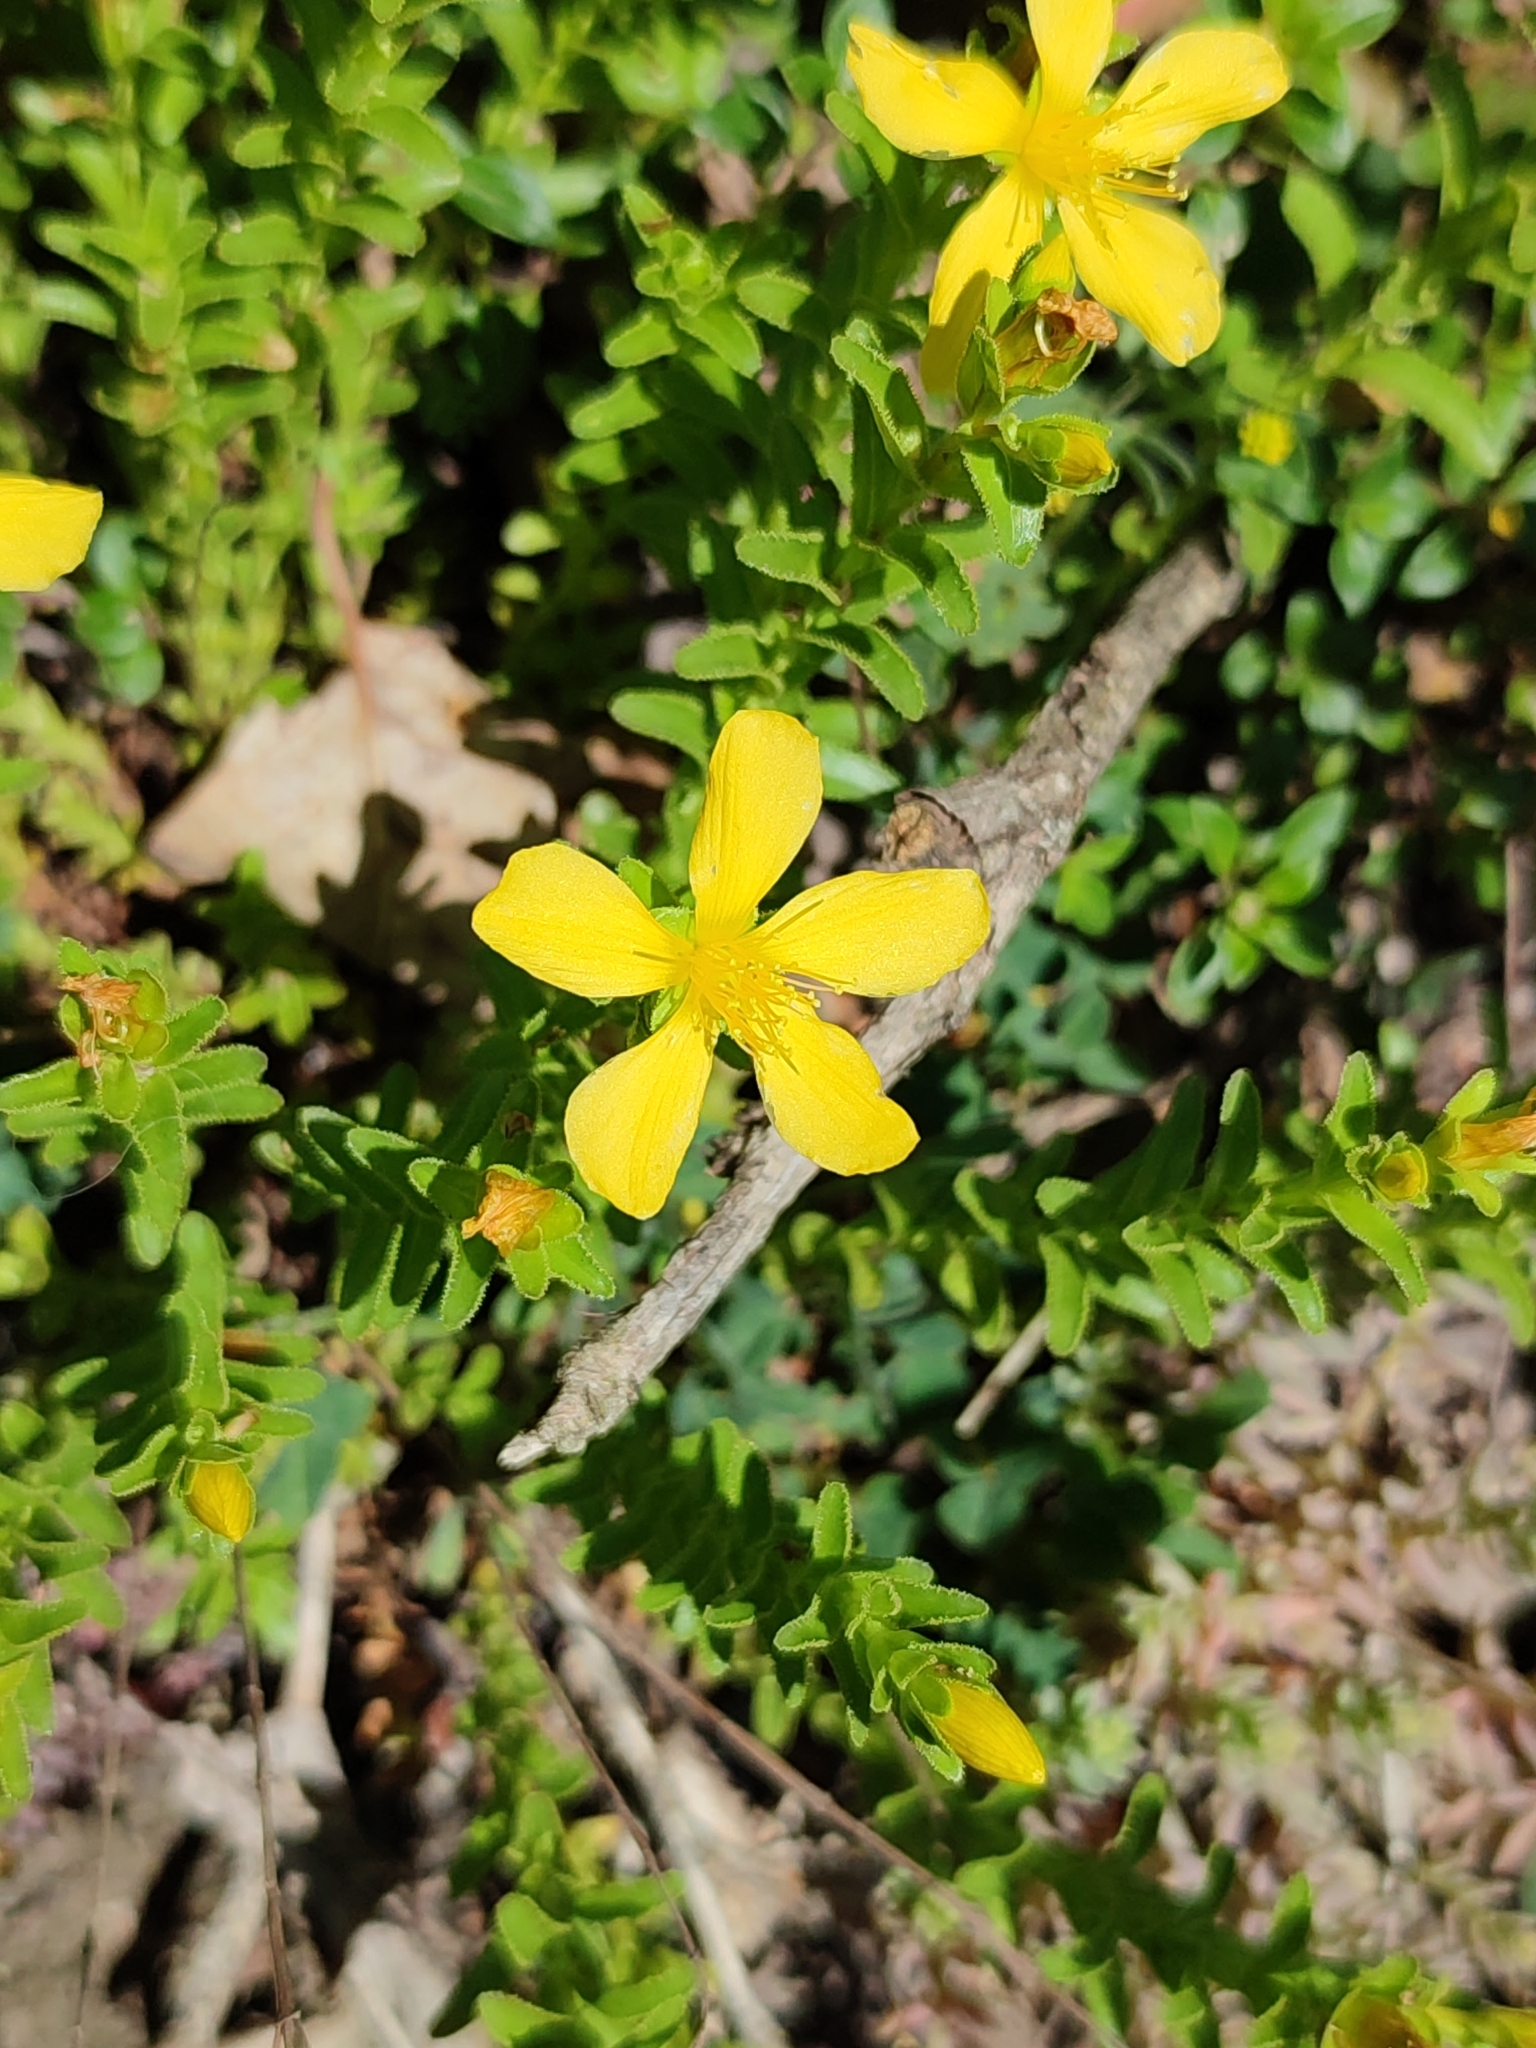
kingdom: Plantae
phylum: Tracheophyta
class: Magnoliopsida
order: Malpighiales
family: Hypericaceae
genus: Hypericum
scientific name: Hypericum orientale
